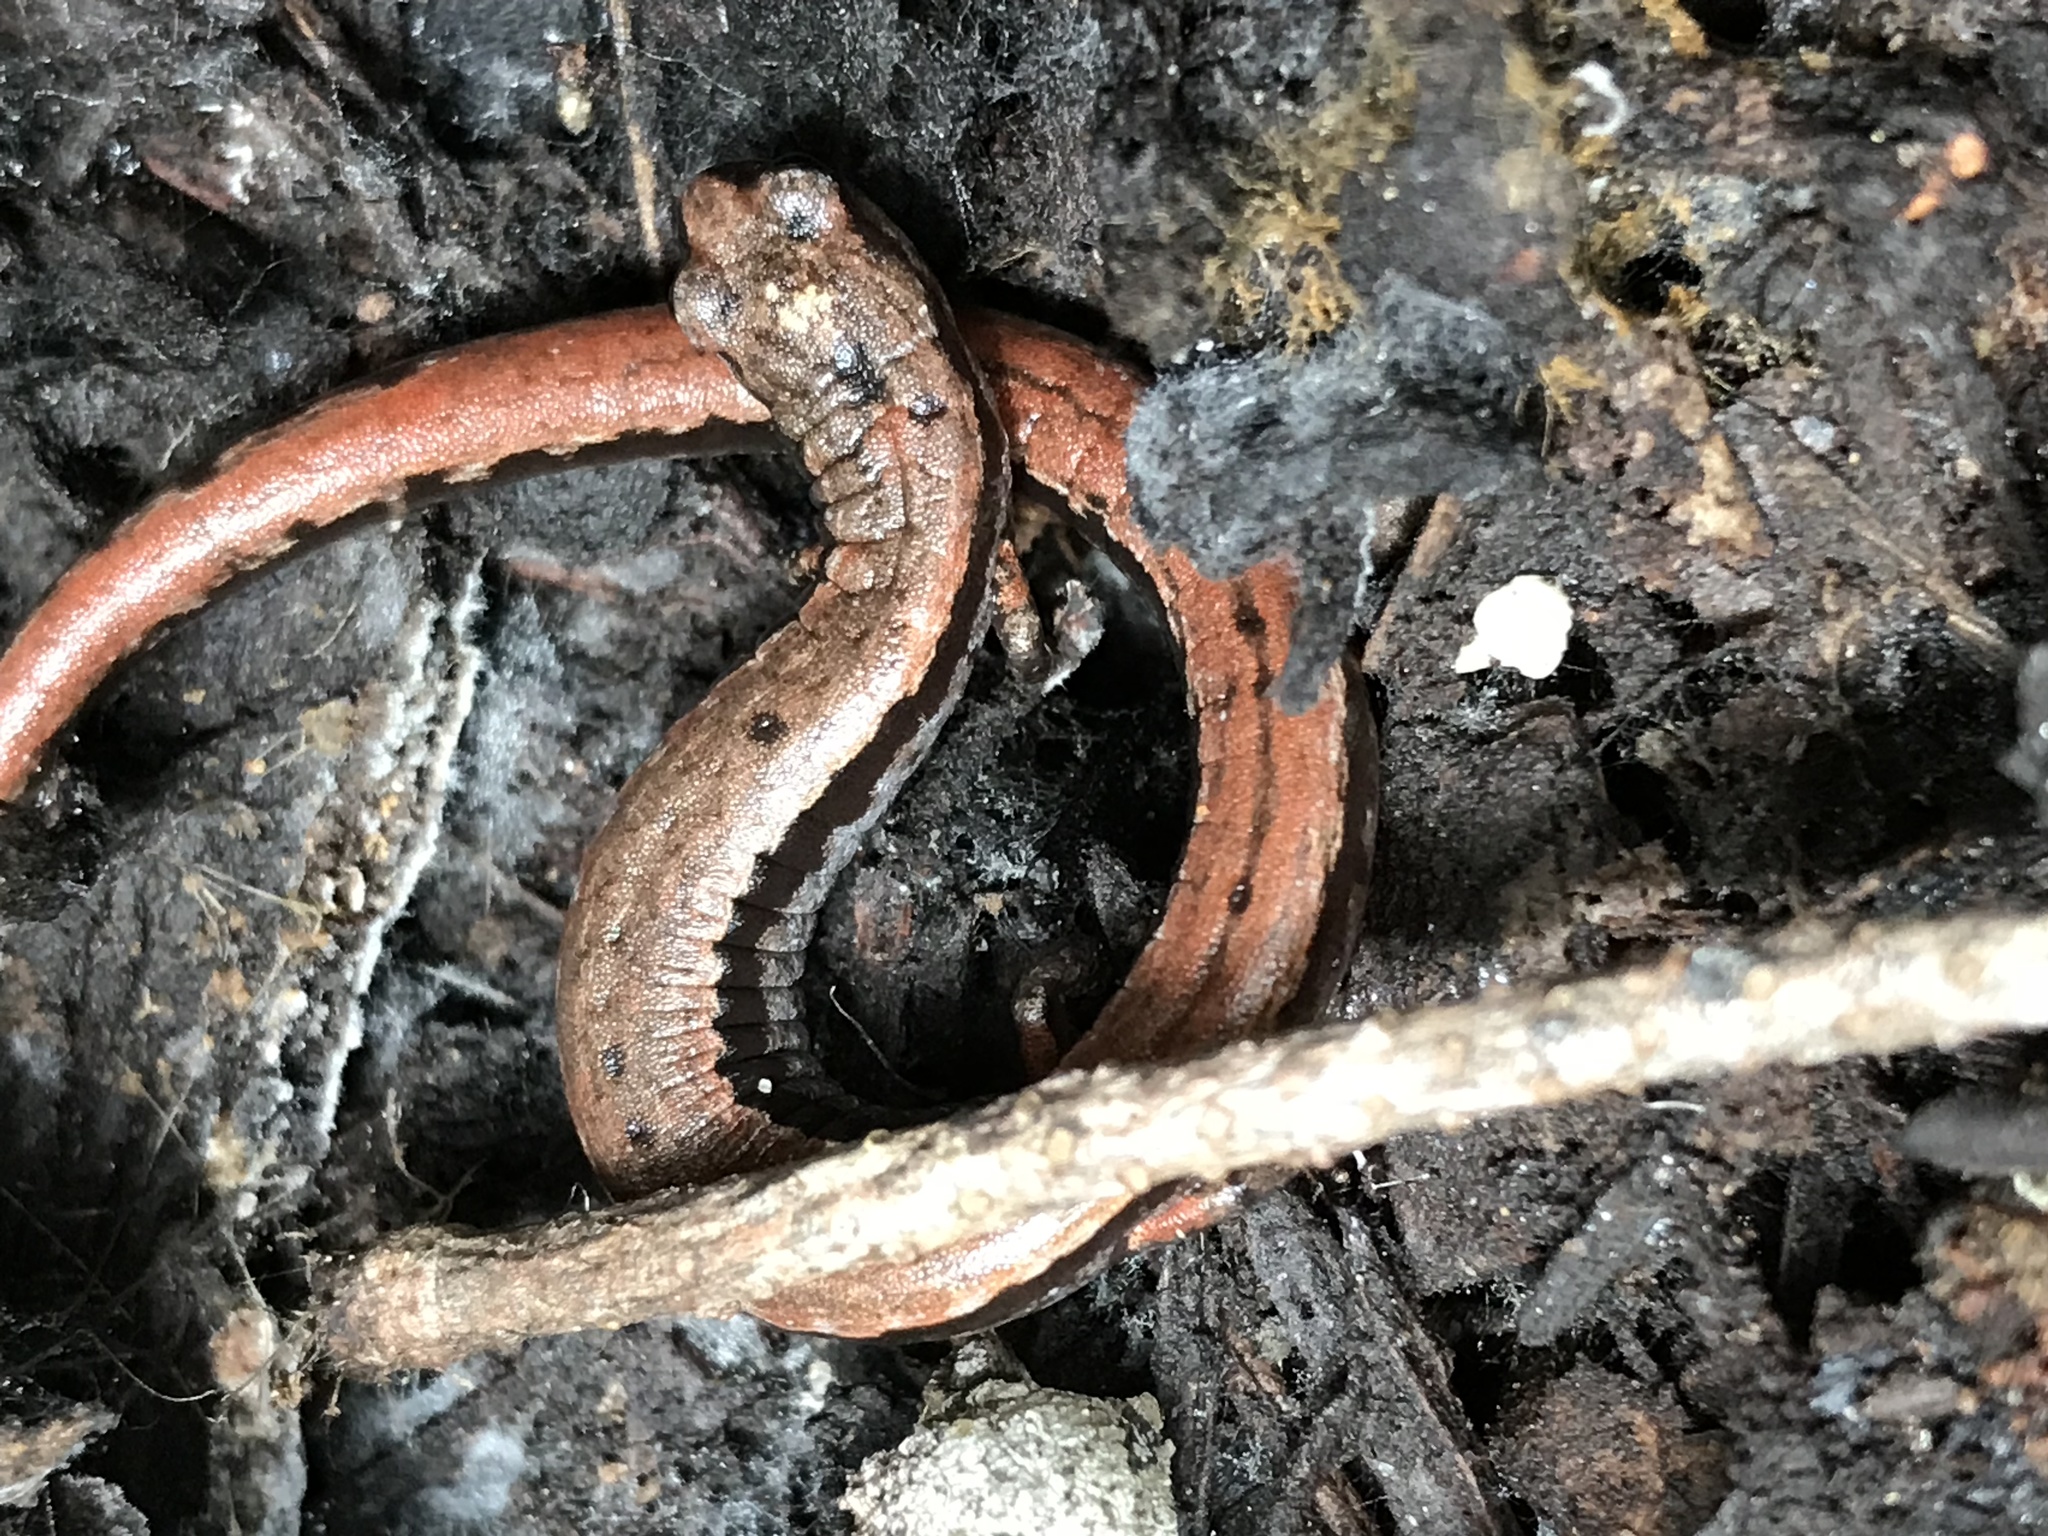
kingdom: Animalia
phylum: Chordata
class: Amphibia
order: Caudata
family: Plethodontidae
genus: Batrachoseps
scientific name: Batrachoseps attenuatus
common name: California slender salamander
